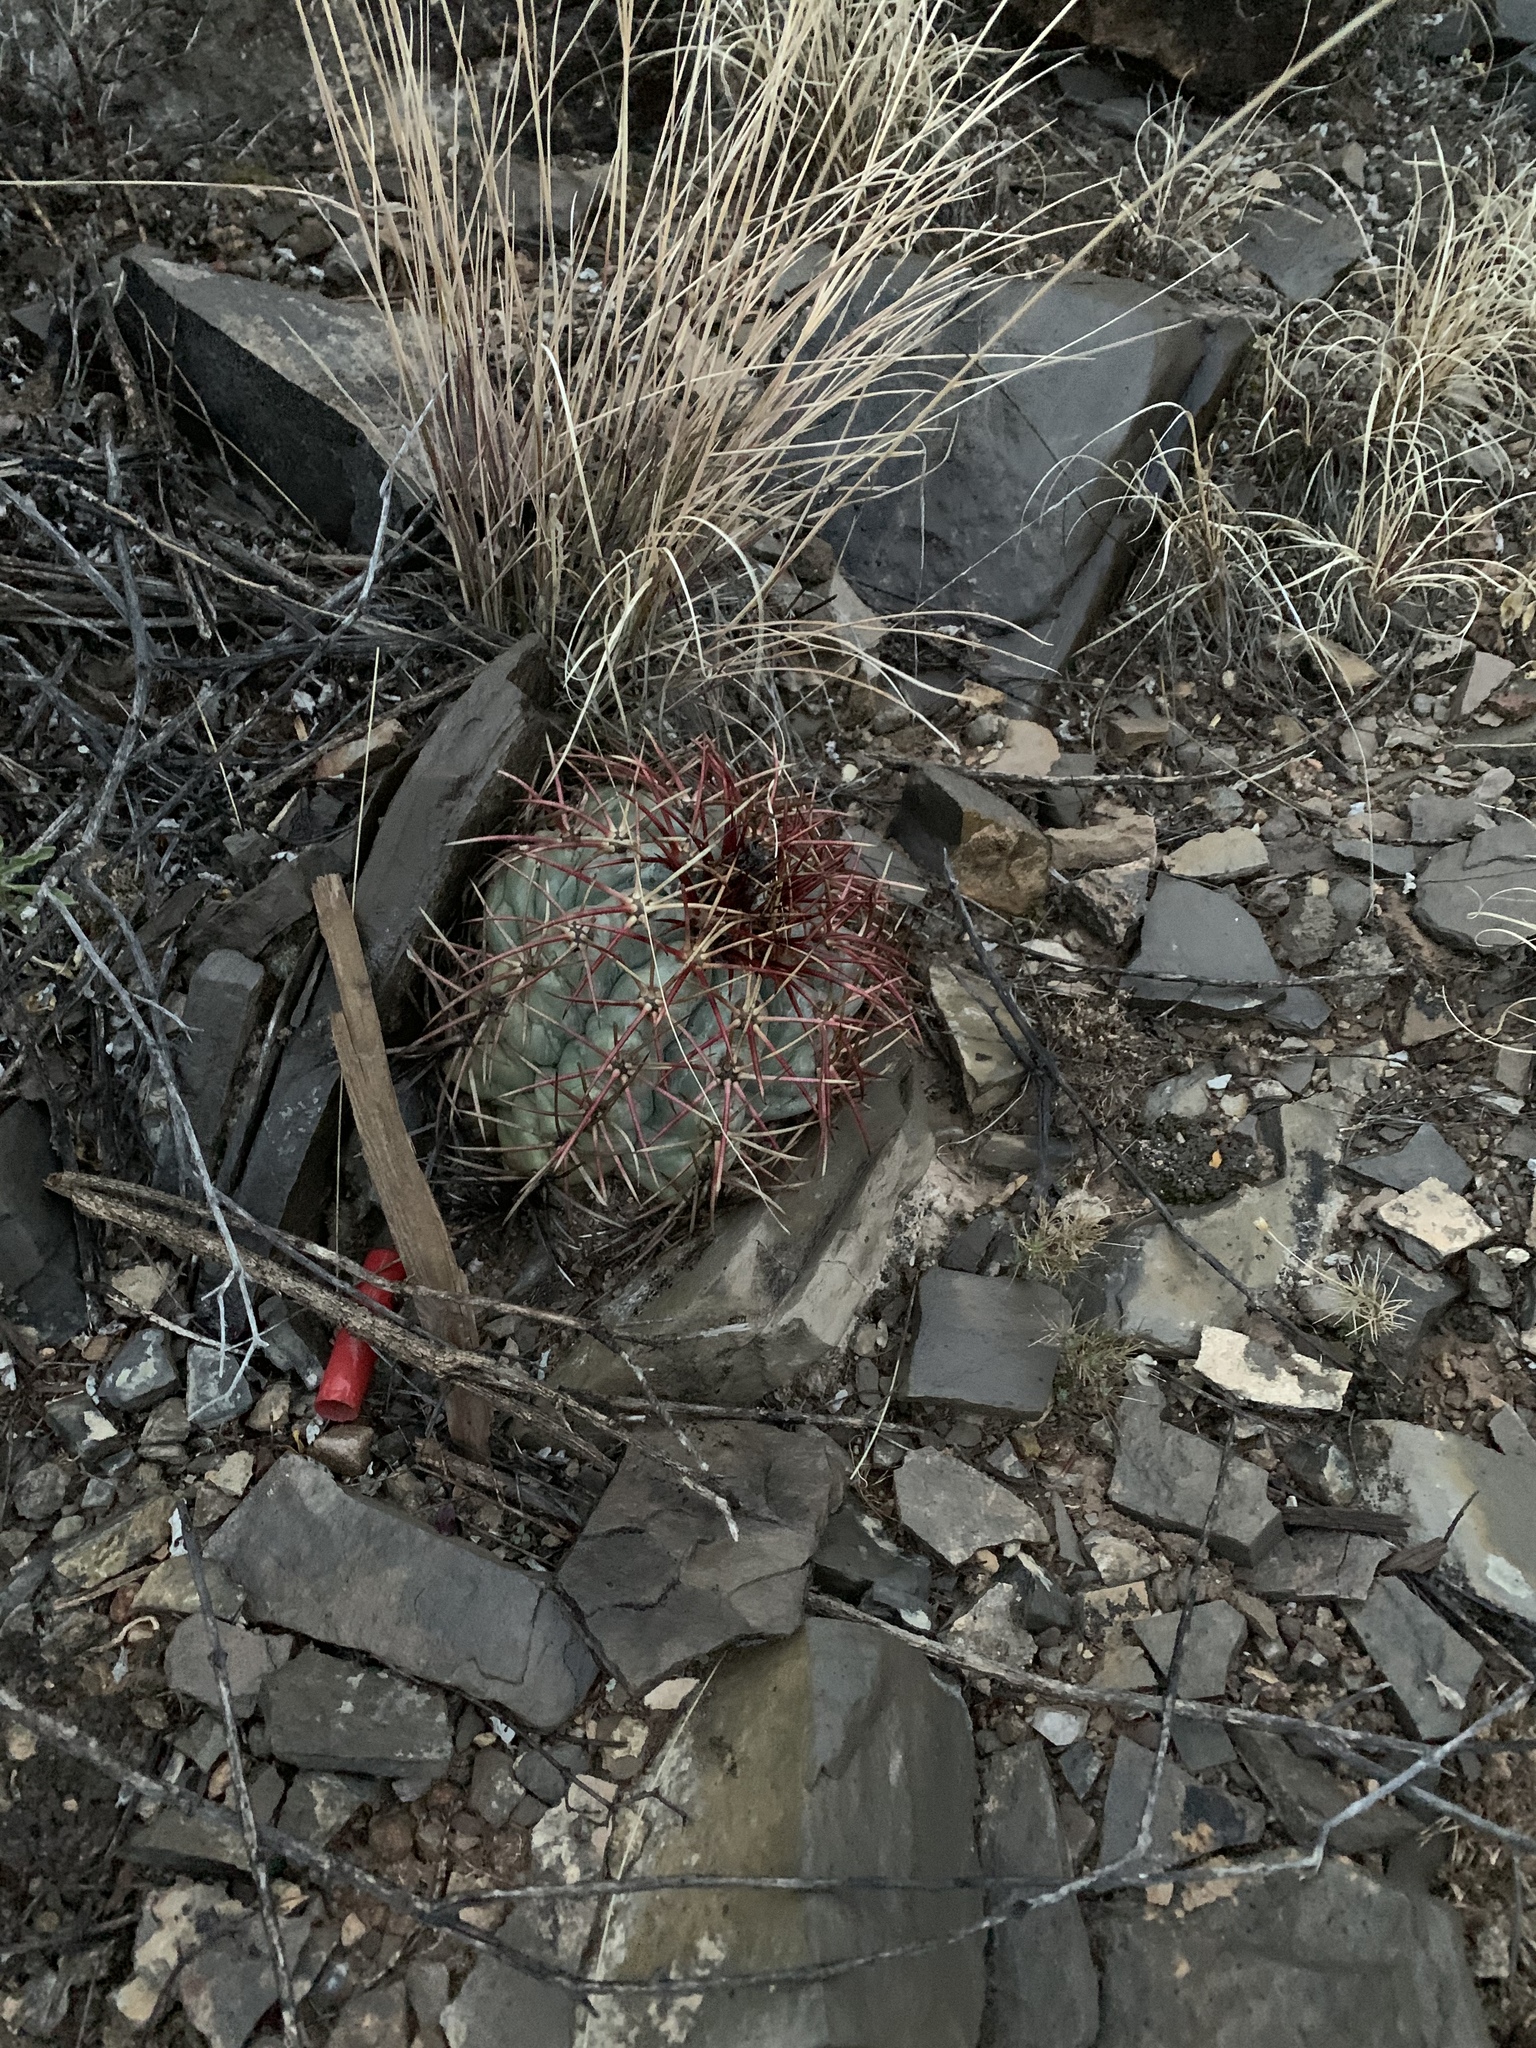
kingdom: Plantae
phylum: Tracheophyta
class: Magnoliopsida
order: Caryophyllales
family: Cactaceae
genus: Echinocactus
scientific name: Echinocactus horizonthalonius
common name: Devilshead
